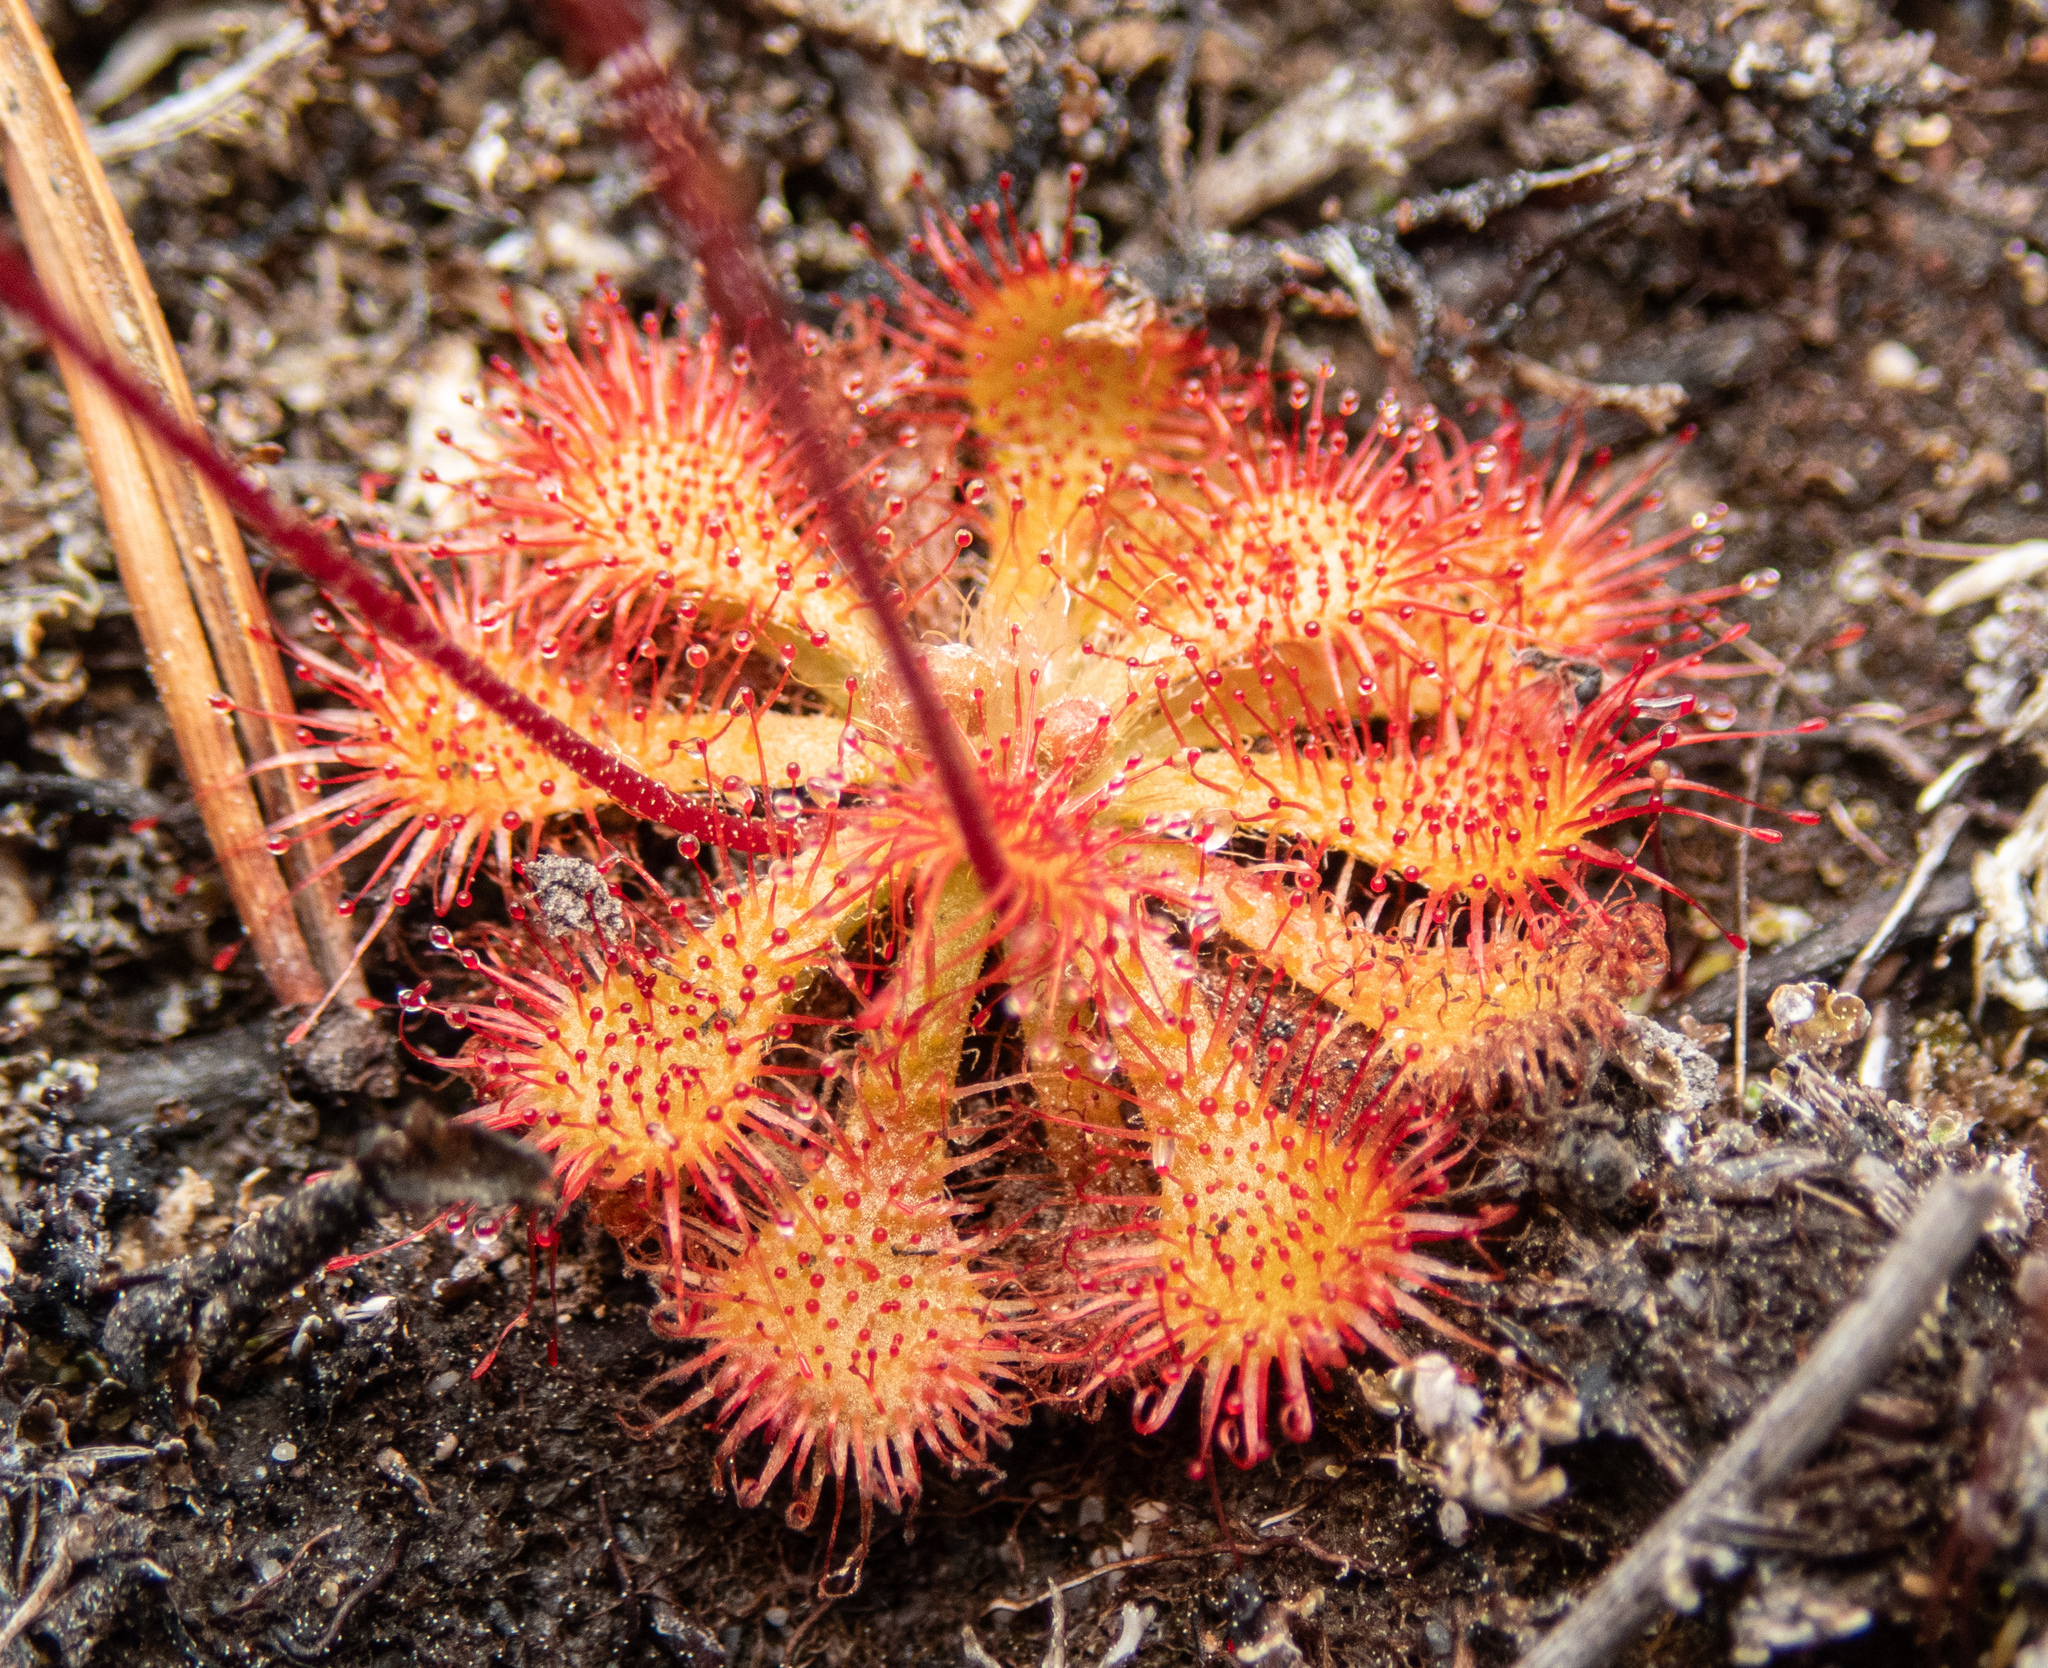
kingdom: Plantae
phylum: Tracheophyta
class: Magnoliopsida
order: Caryophyllales
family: Droseraceae
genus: Drosera
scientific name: Drosera spatulata
